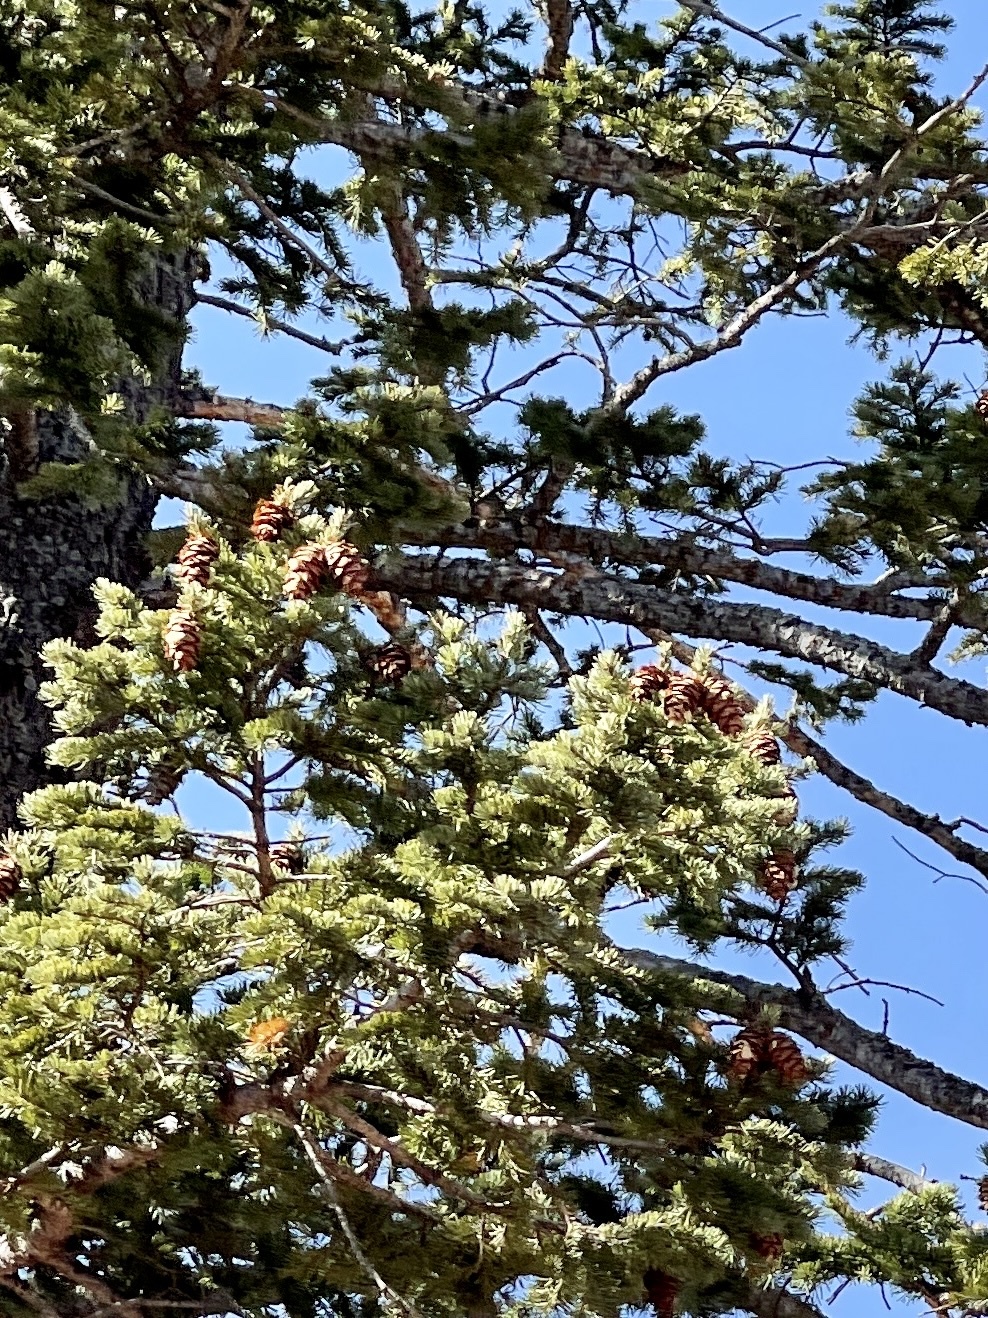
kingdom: Plantae
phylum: Tracheophyta
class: Pinopsida
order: Pinales
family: Pinaceae
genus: Pseudotsuga
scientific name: Pseudotsuga menziesii
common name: Douglas fir
